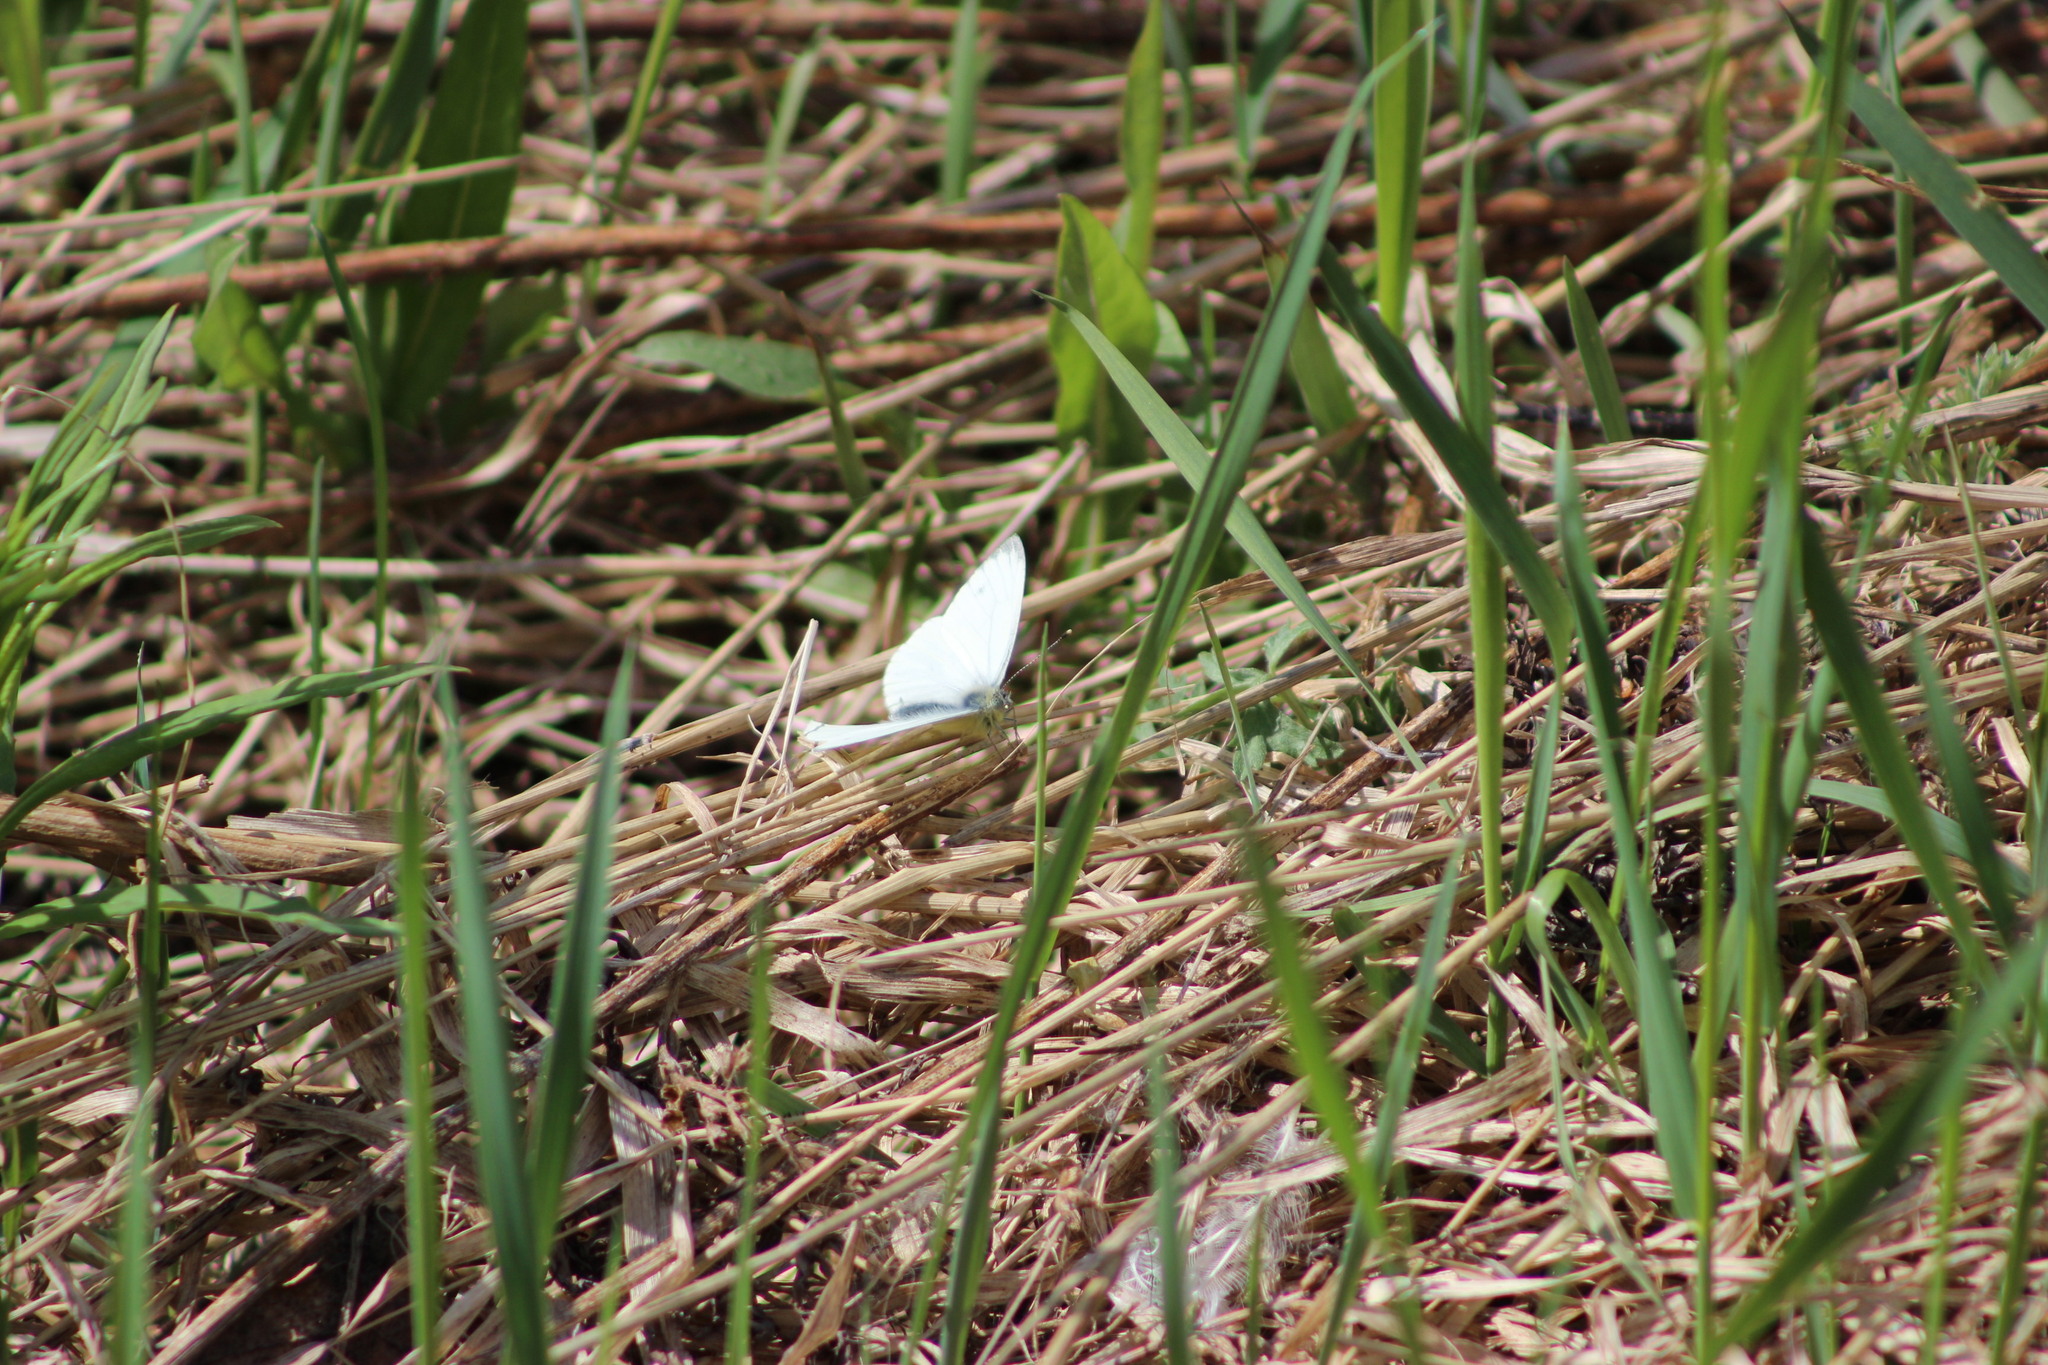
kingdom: Animalia
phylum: Arthropoda
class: Insecta
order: Lepidoptera
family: Pieridae
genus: Pieris
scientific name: Pieris napi
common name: Green-veined white
